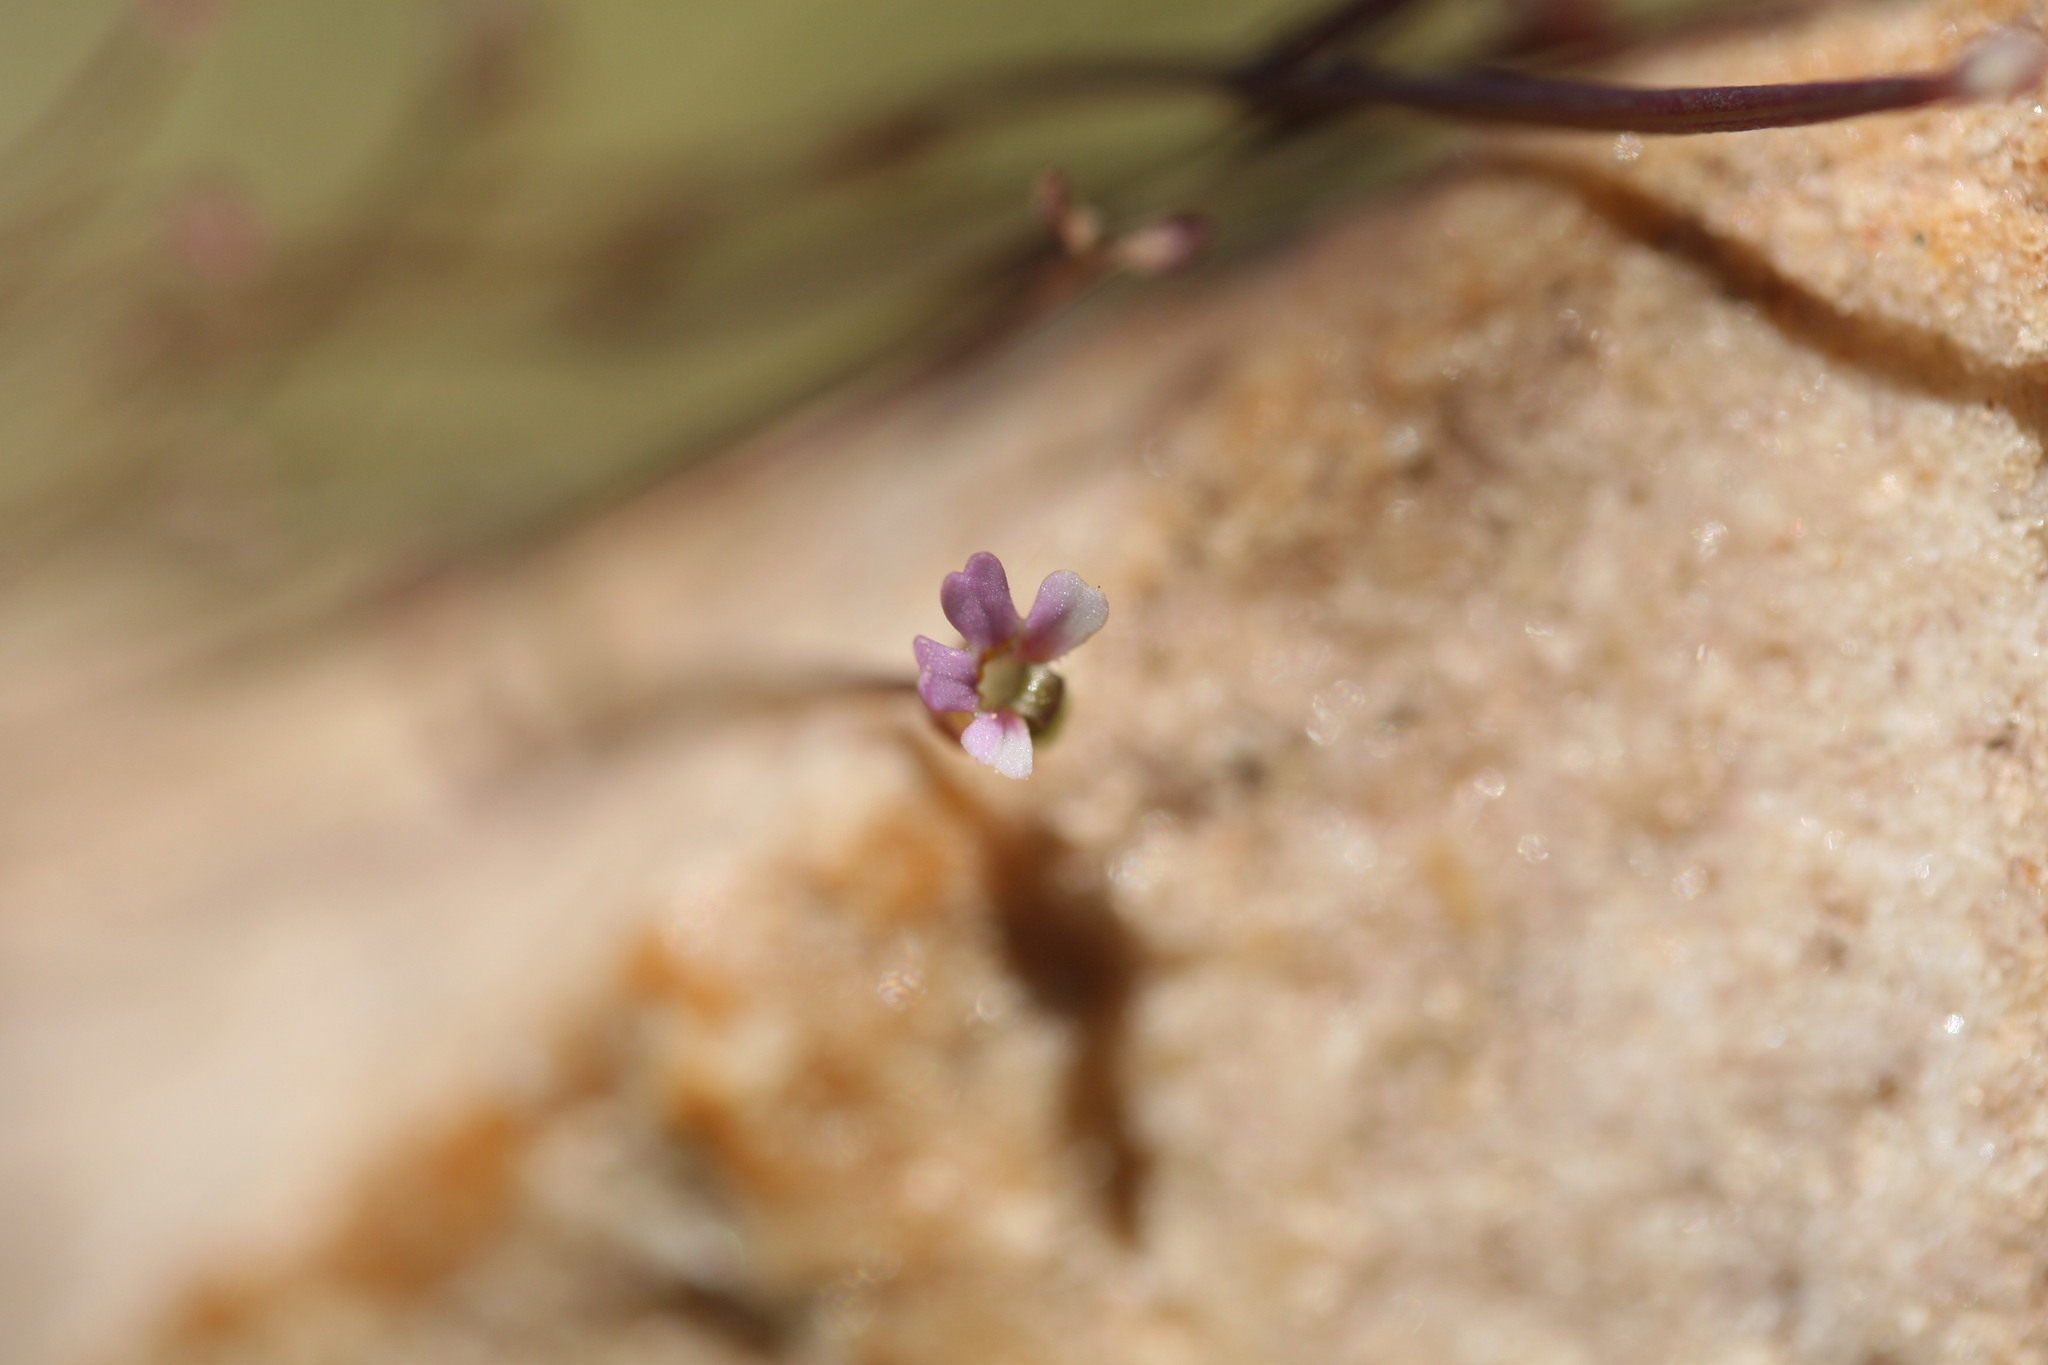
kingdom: Plantae
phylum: Tracheophyta
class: Magnoliopsida
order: Asterales
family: Stylidiaceae
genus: Stylidium
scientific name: Stylidium rotundifolium
